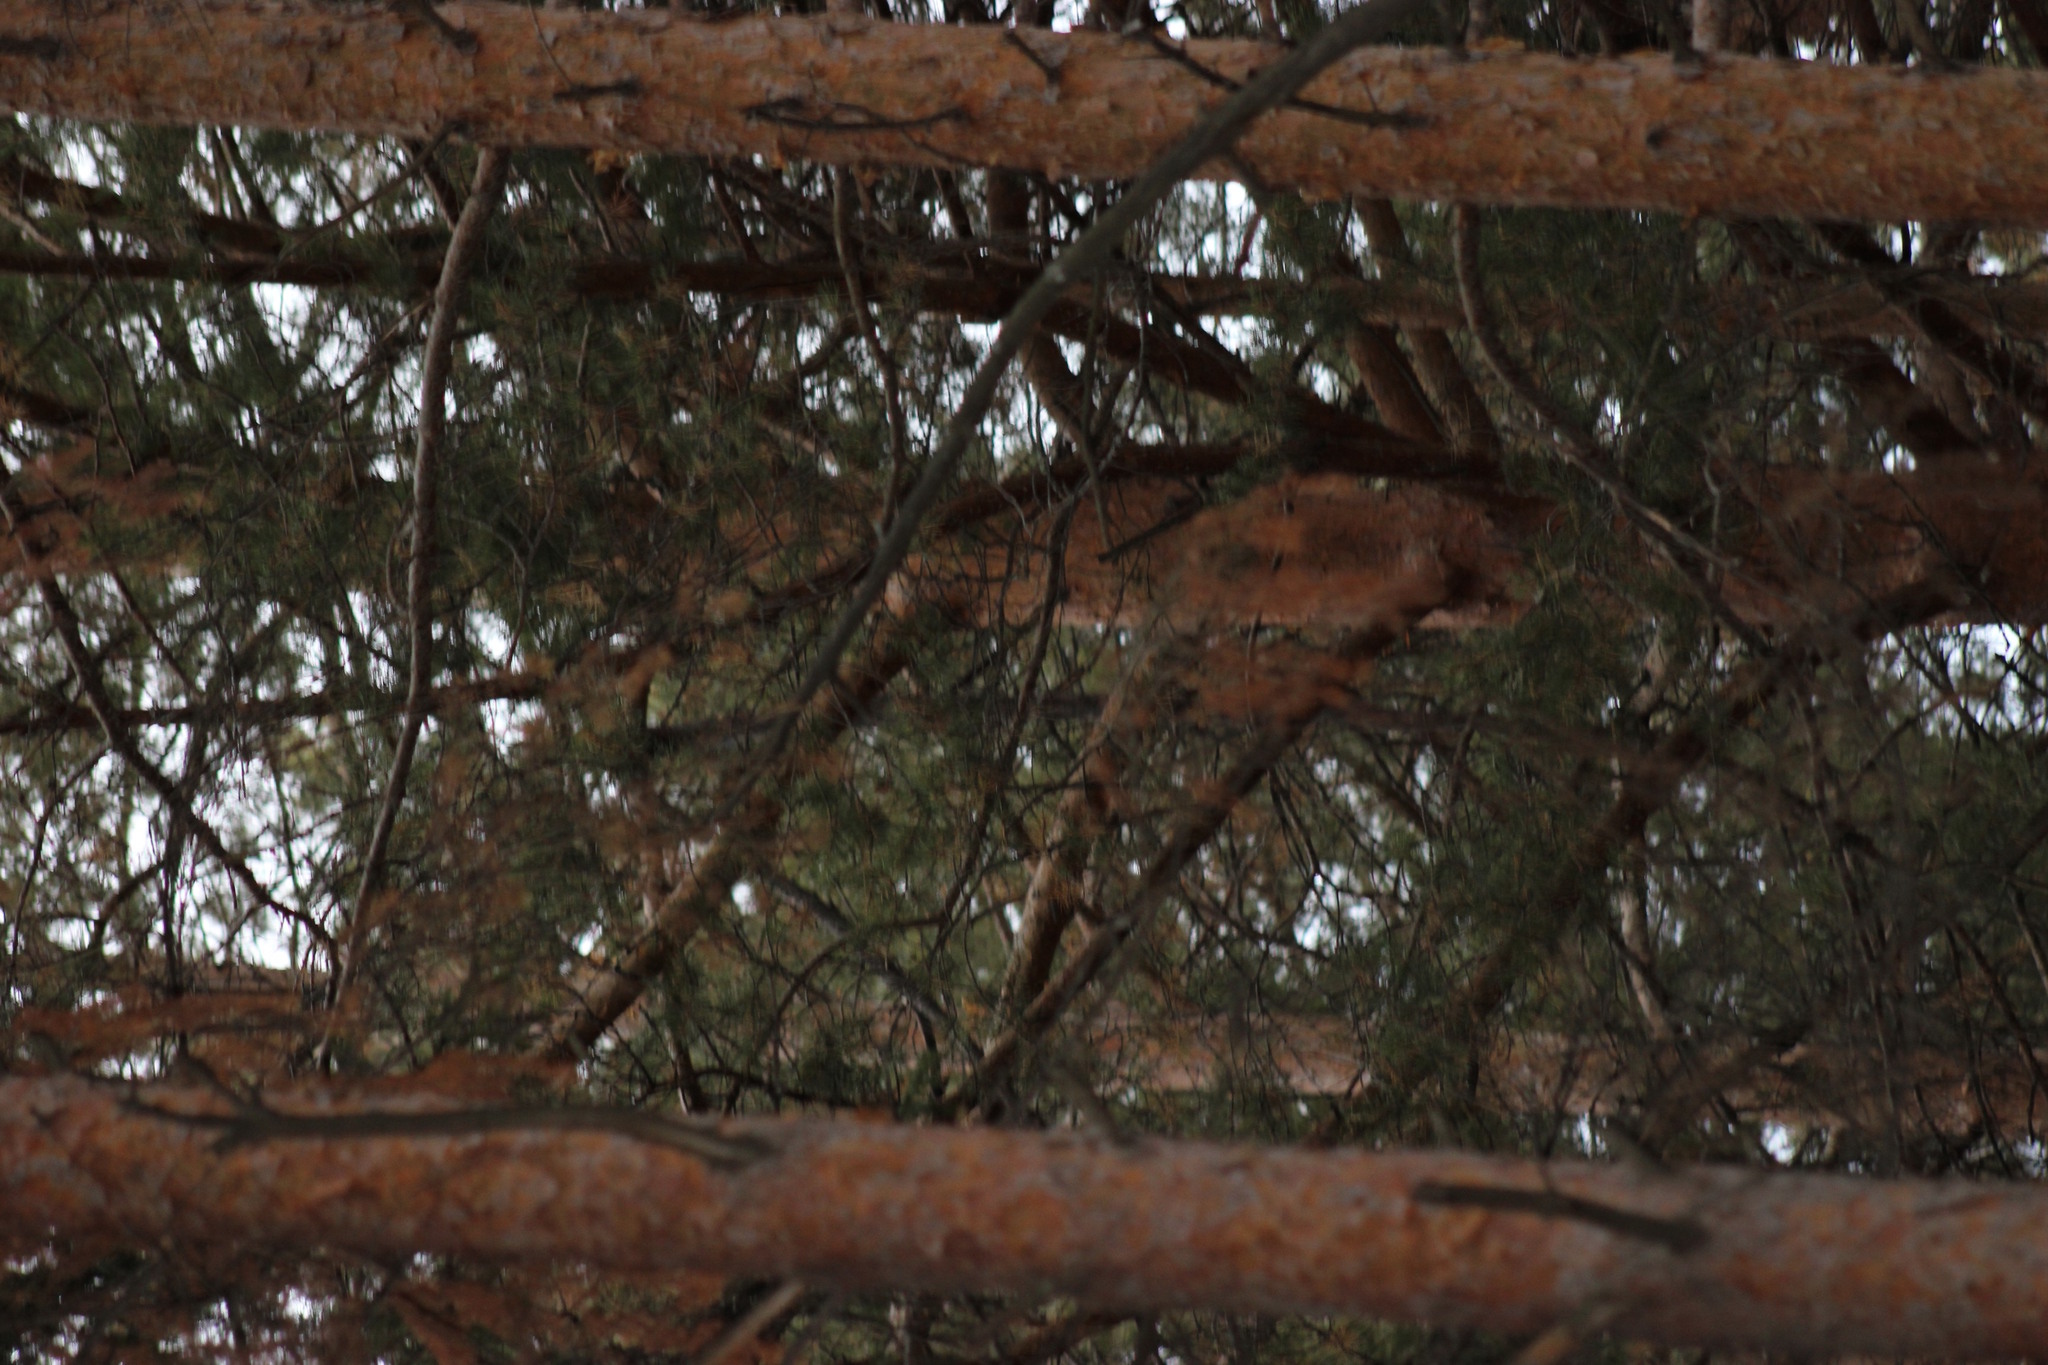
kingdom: Plantae
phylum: Tracheophyta
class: Pinopsida
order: Pinales
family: Pinaceae
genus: Pinus
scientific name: Pinus sylvestris
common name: Scots pine
